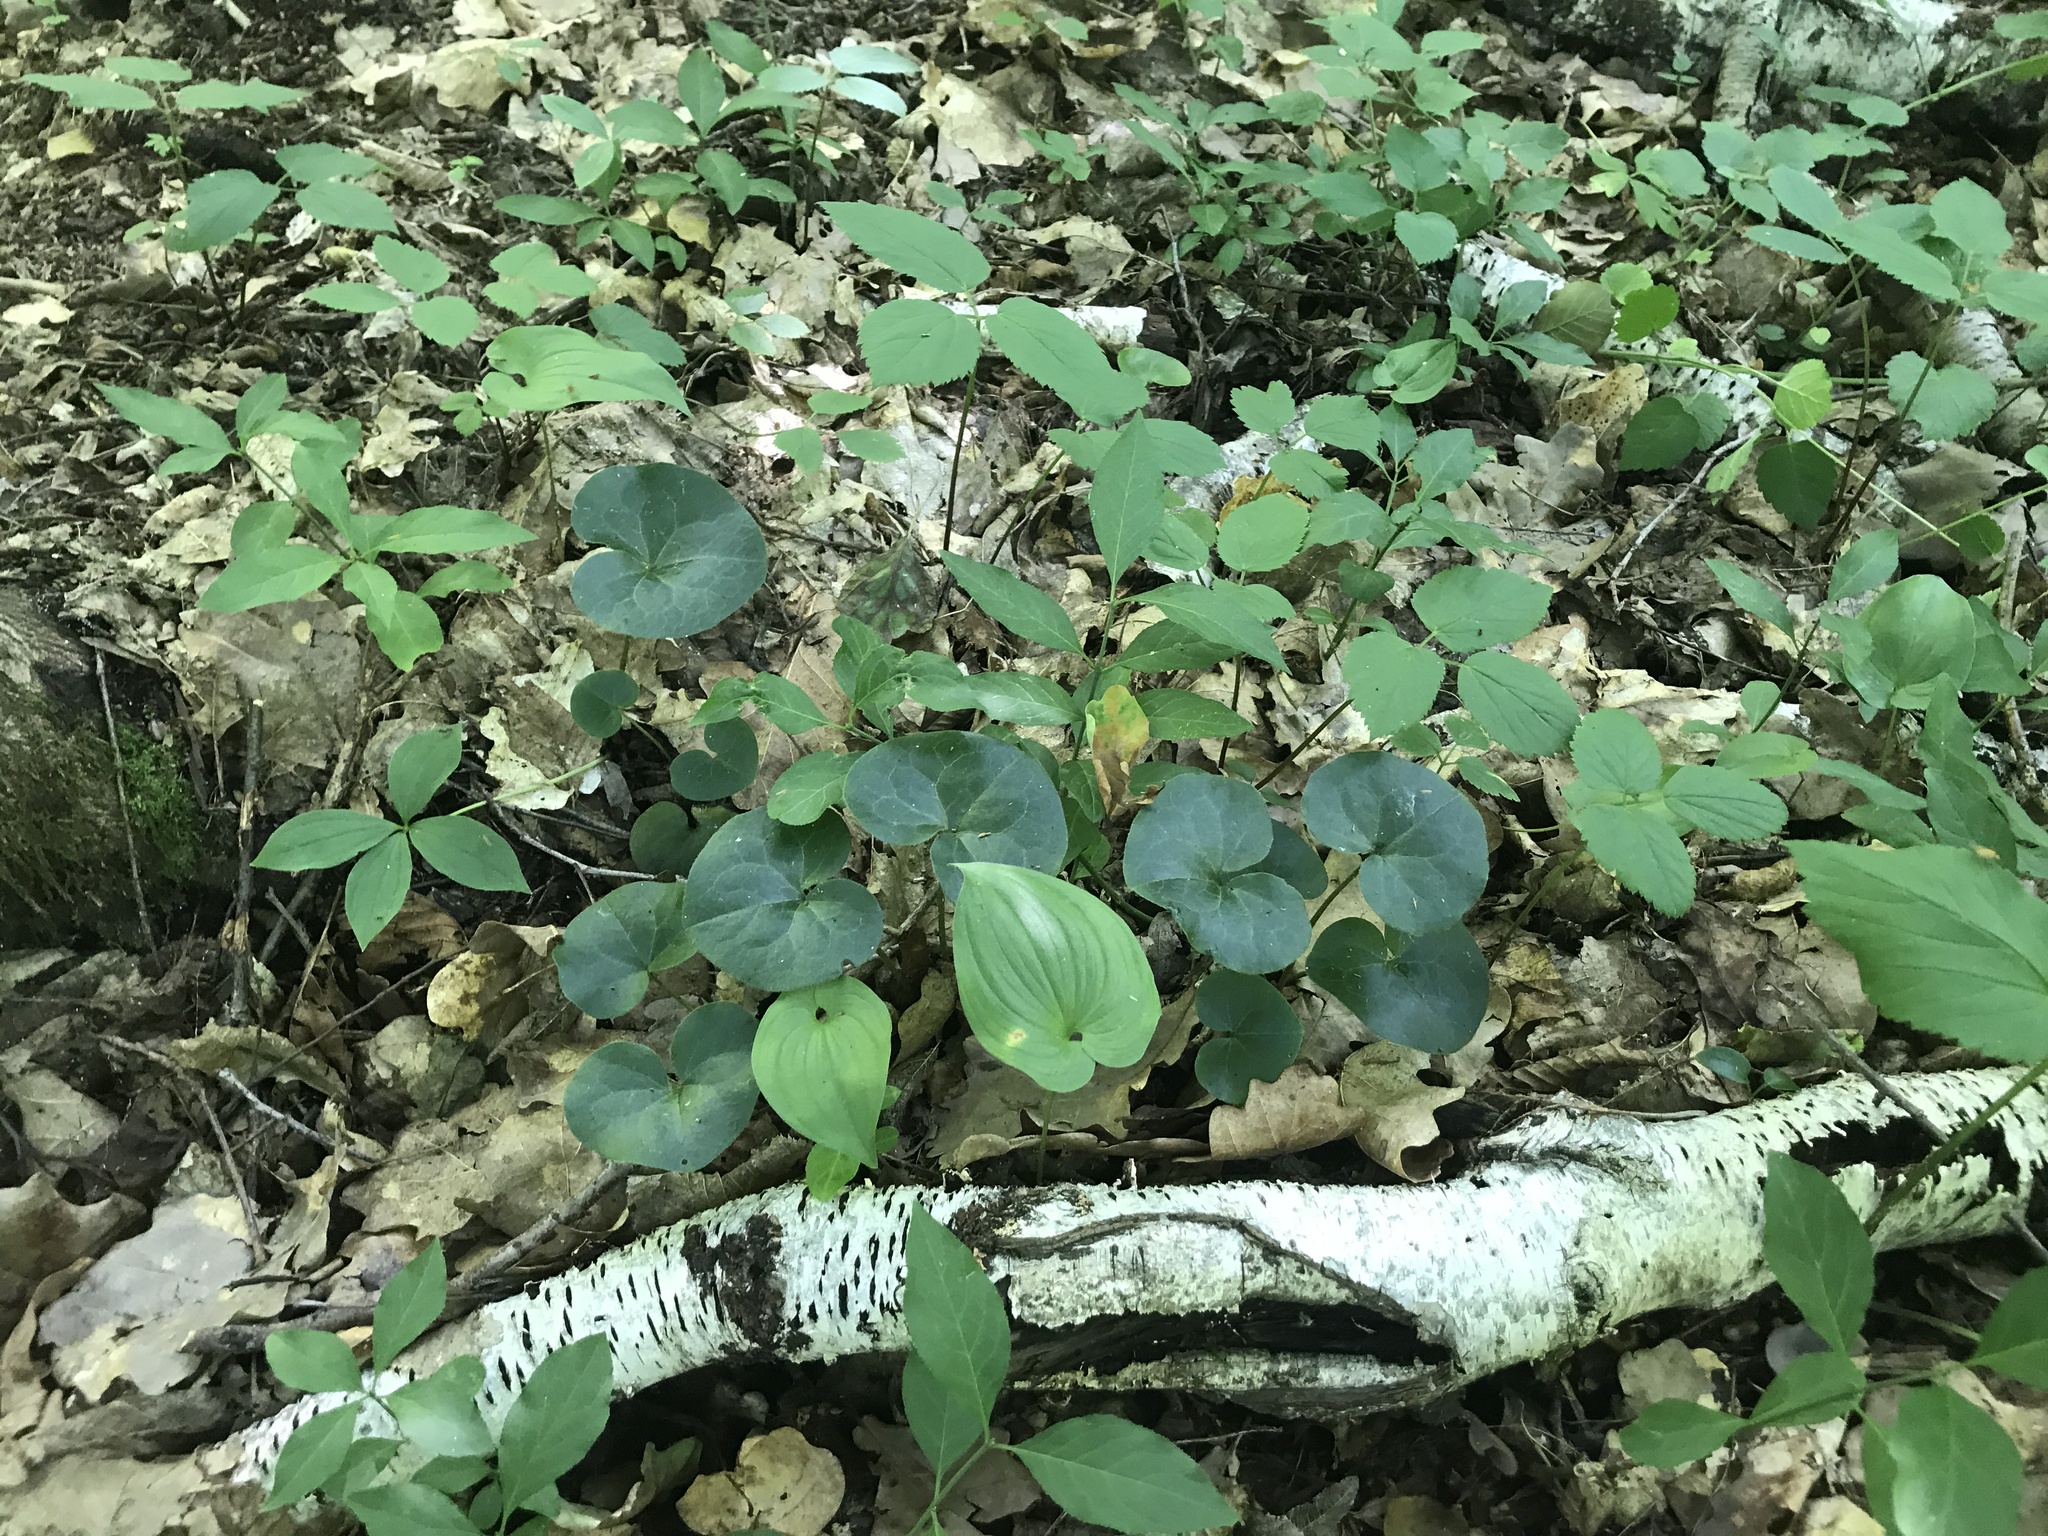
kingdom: Plantae
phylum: Tracheophyta
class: Magnoliopsida
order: Piperales
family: Aristolochiaceae
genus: Asarum
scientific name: Asarum europaeum
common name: Asarabacca
